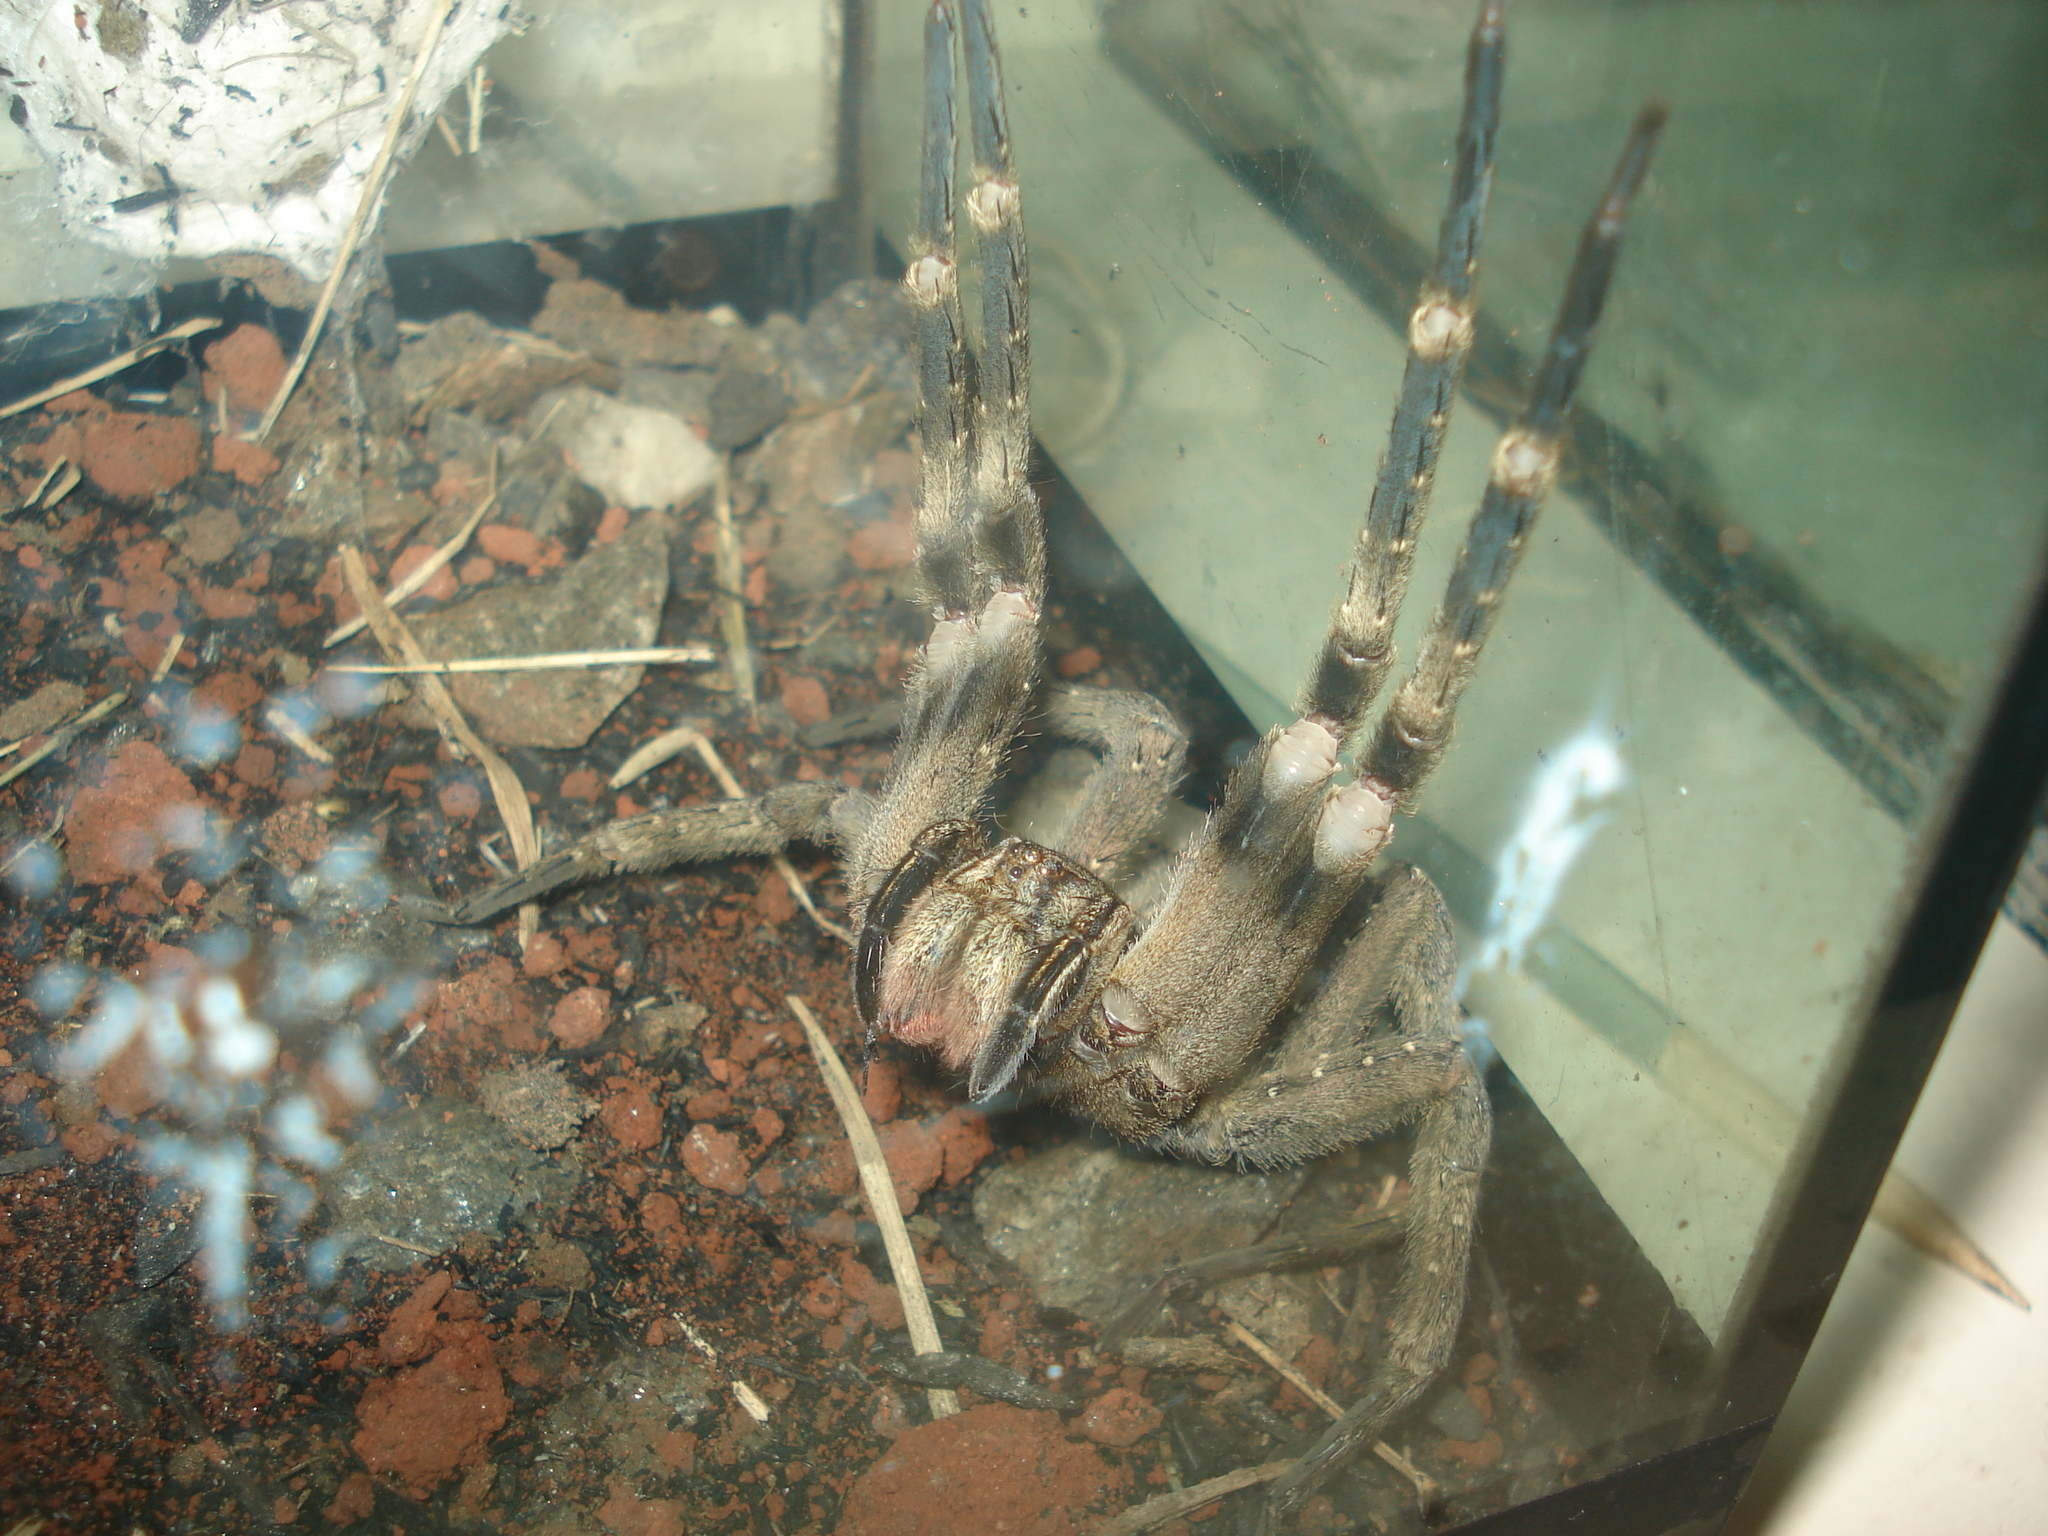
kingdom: Animalia
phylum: Arthropoda
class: Arachnida
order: Araneae
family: Ctenidae
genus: Phoneutria
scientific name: Phoneutria eickstedtae
